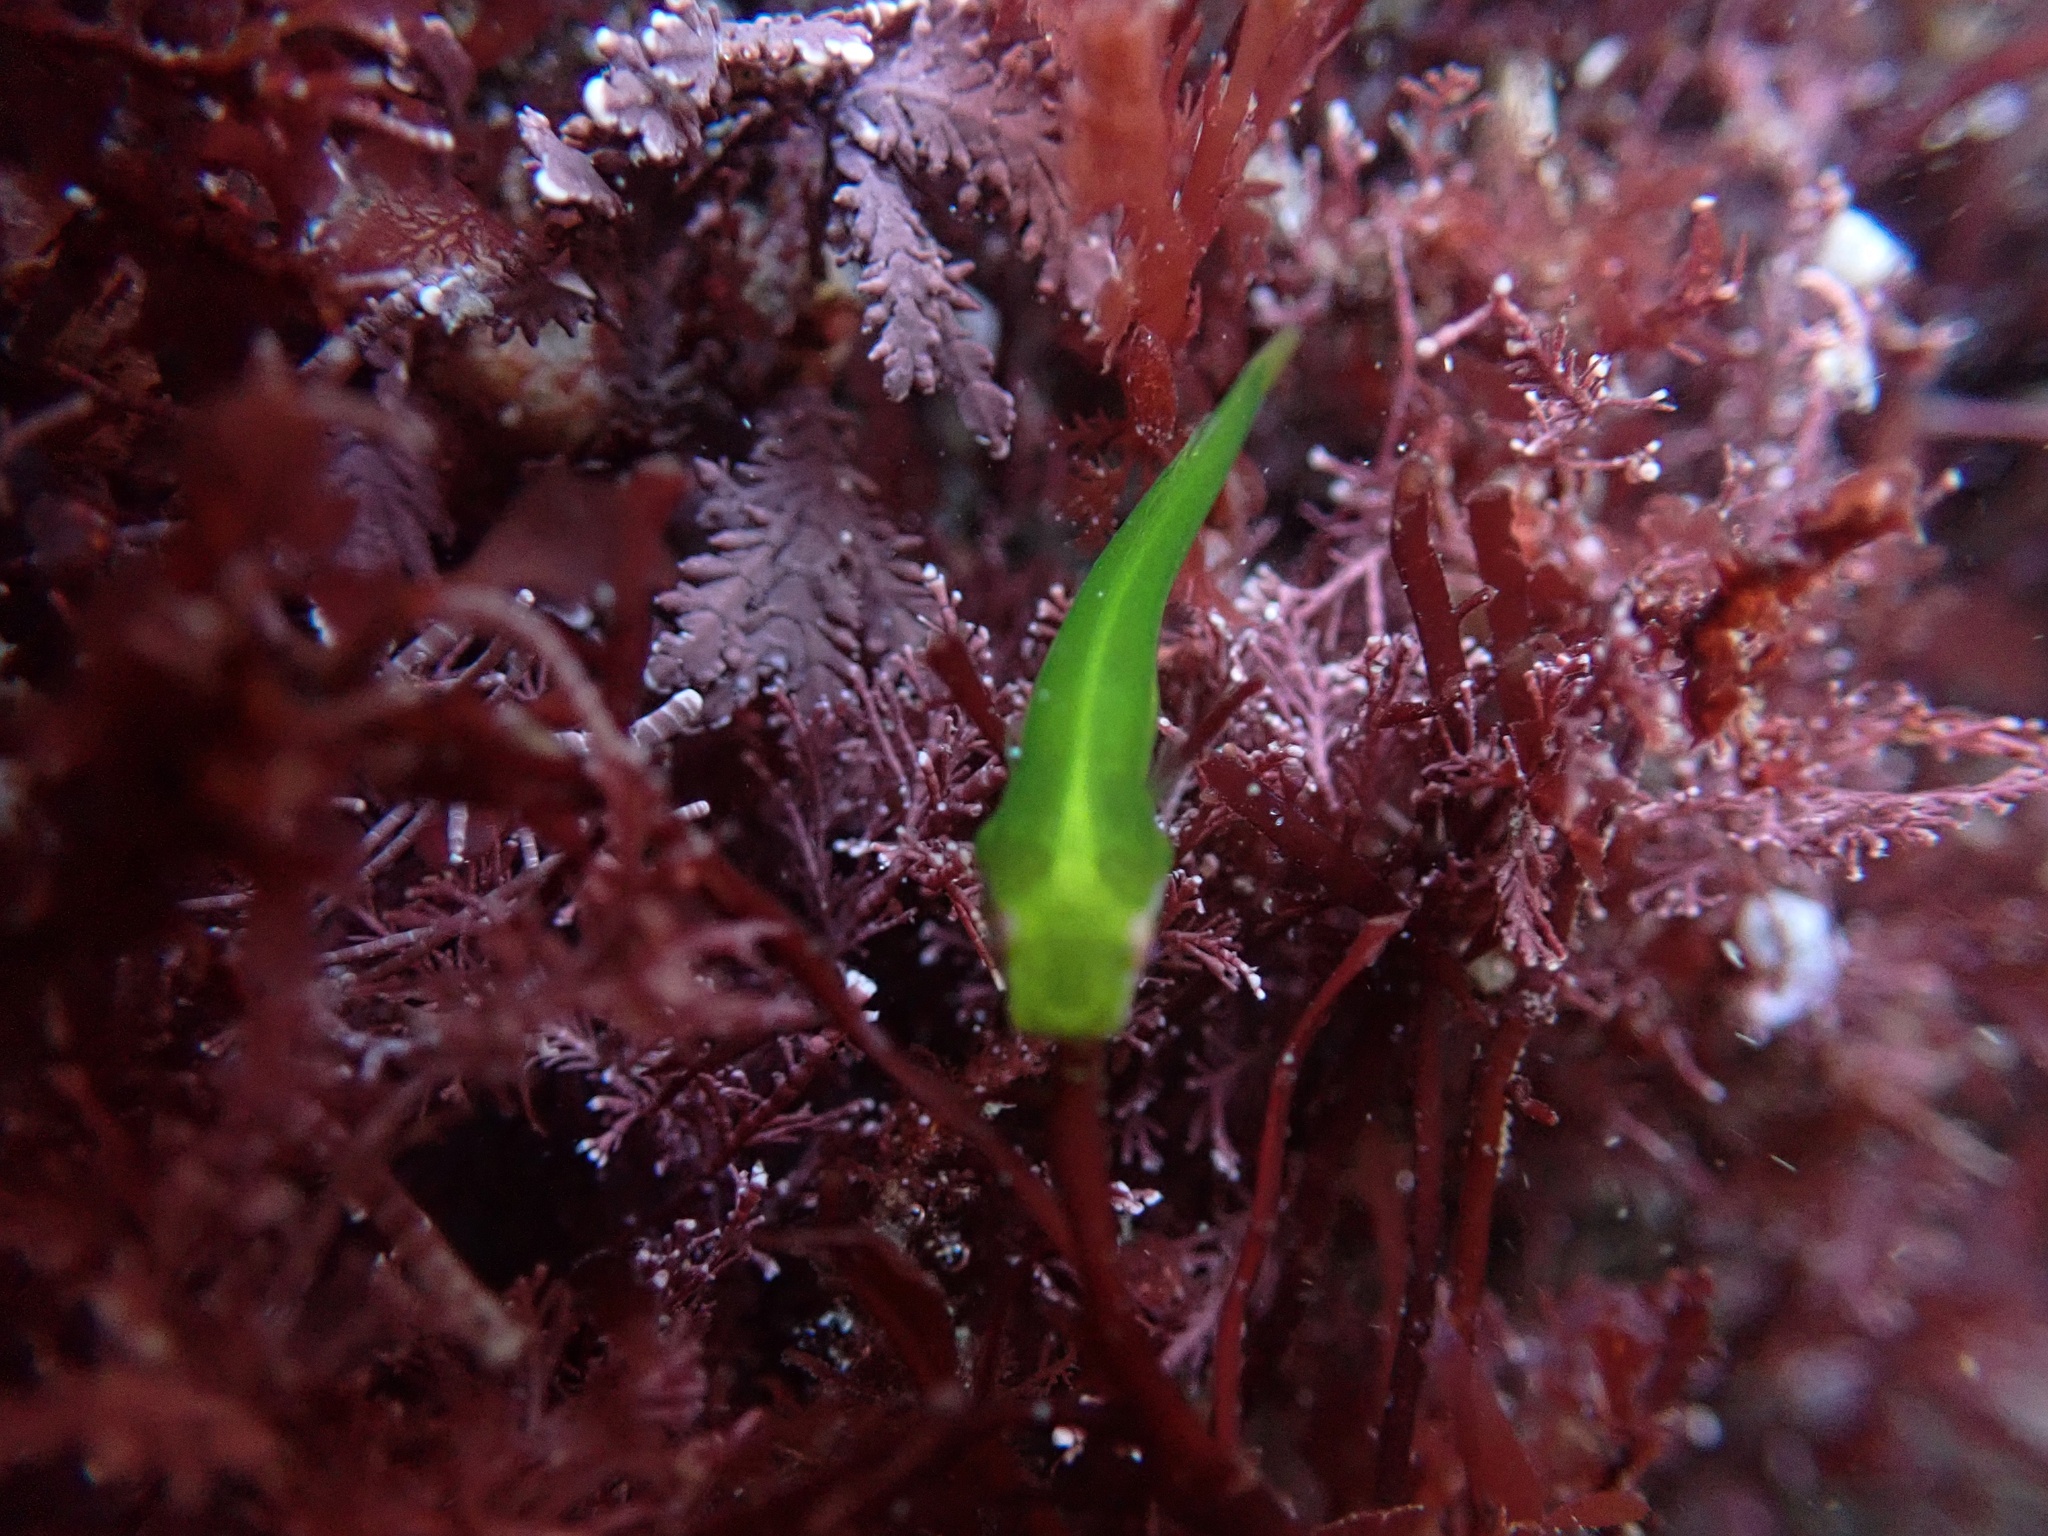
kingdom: Animalia
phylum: Chordata
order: Gobiesociformes
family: Gobiesocidae
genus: Rimicola
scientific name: Rimicola eigenmanni
